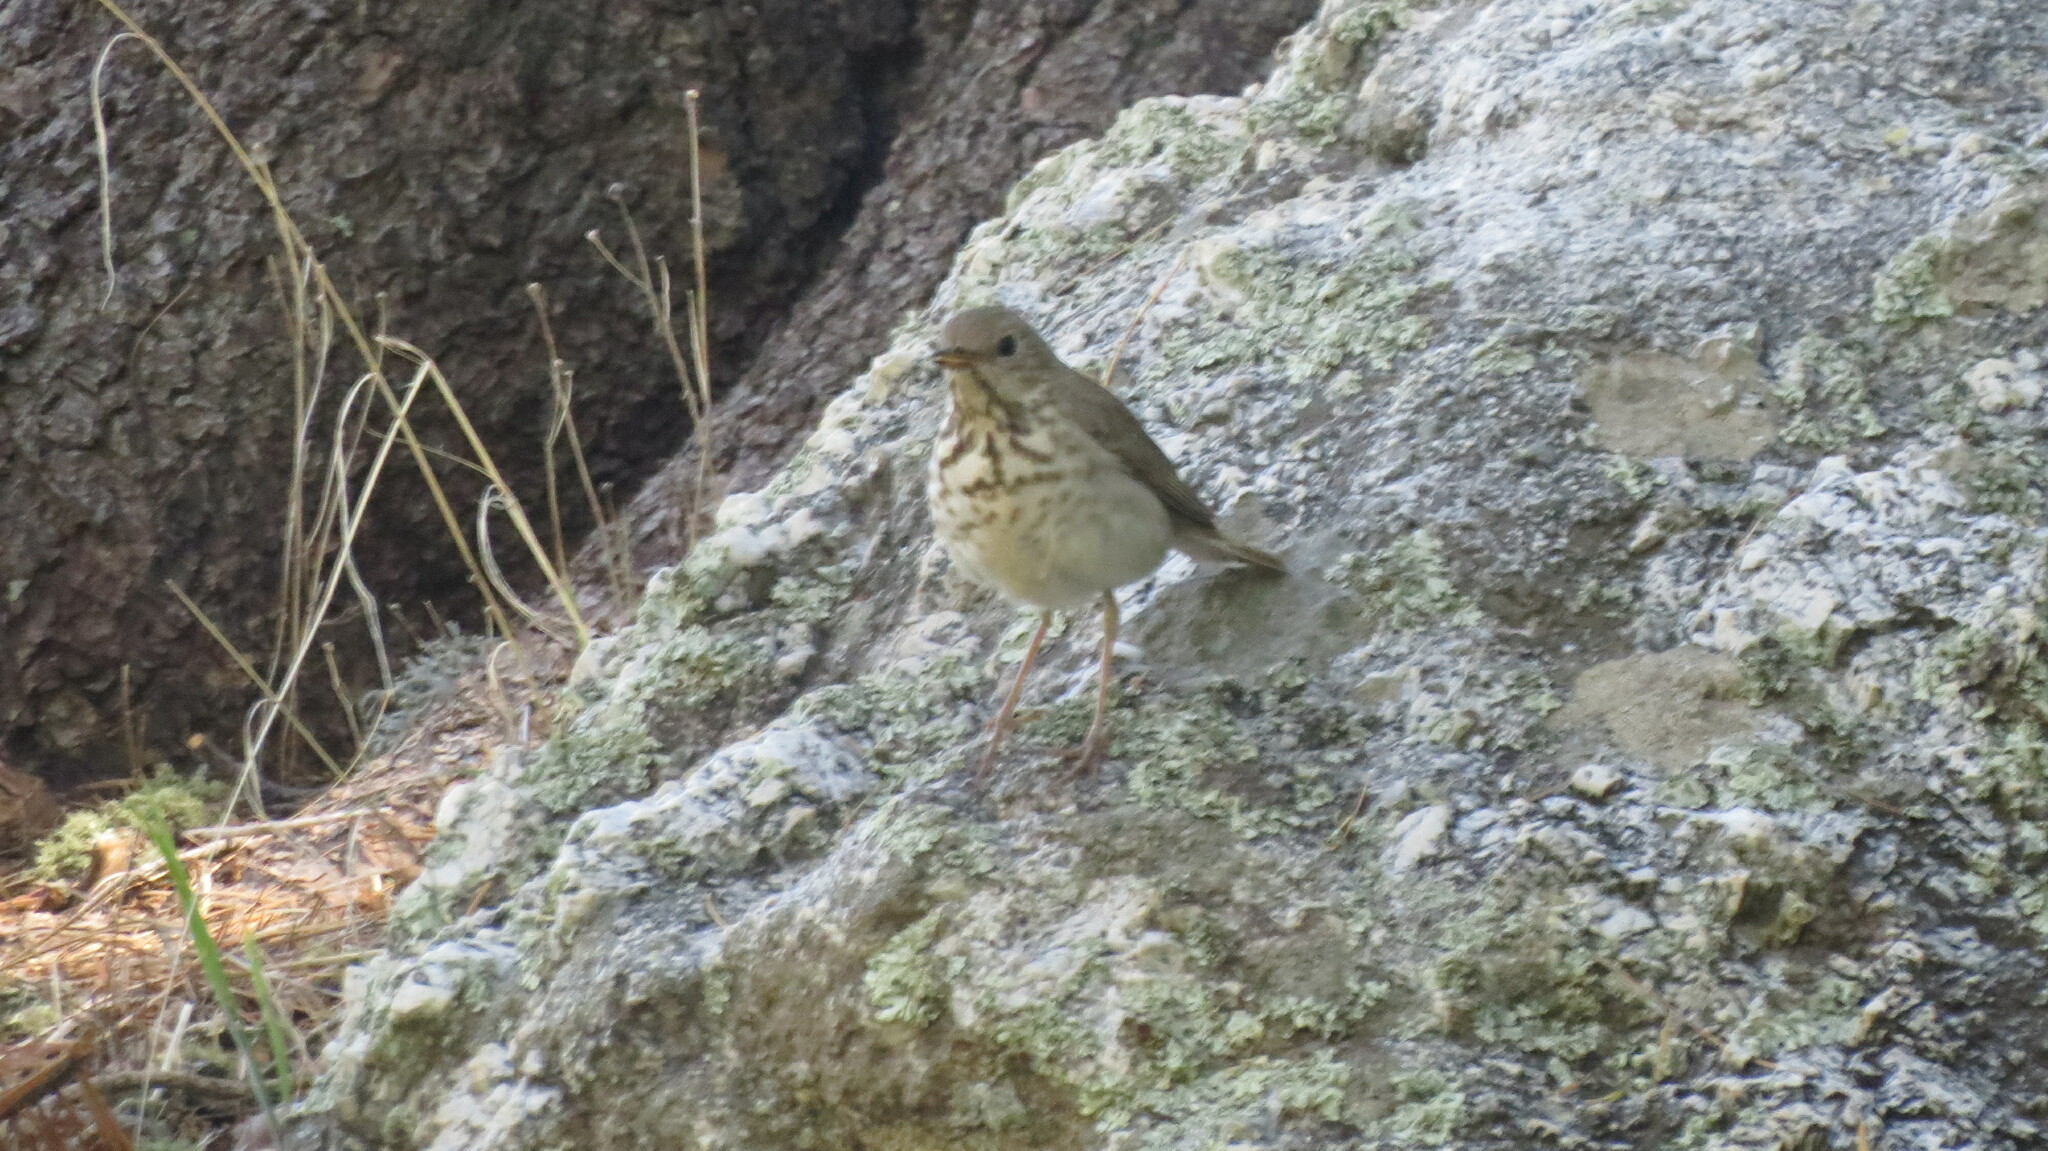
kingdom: Animalia
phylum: Chordata
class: Aves
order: Passeriformes
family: Turdidae
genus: Catharus
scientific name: Catharus guttatus
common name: Hermit thrush
